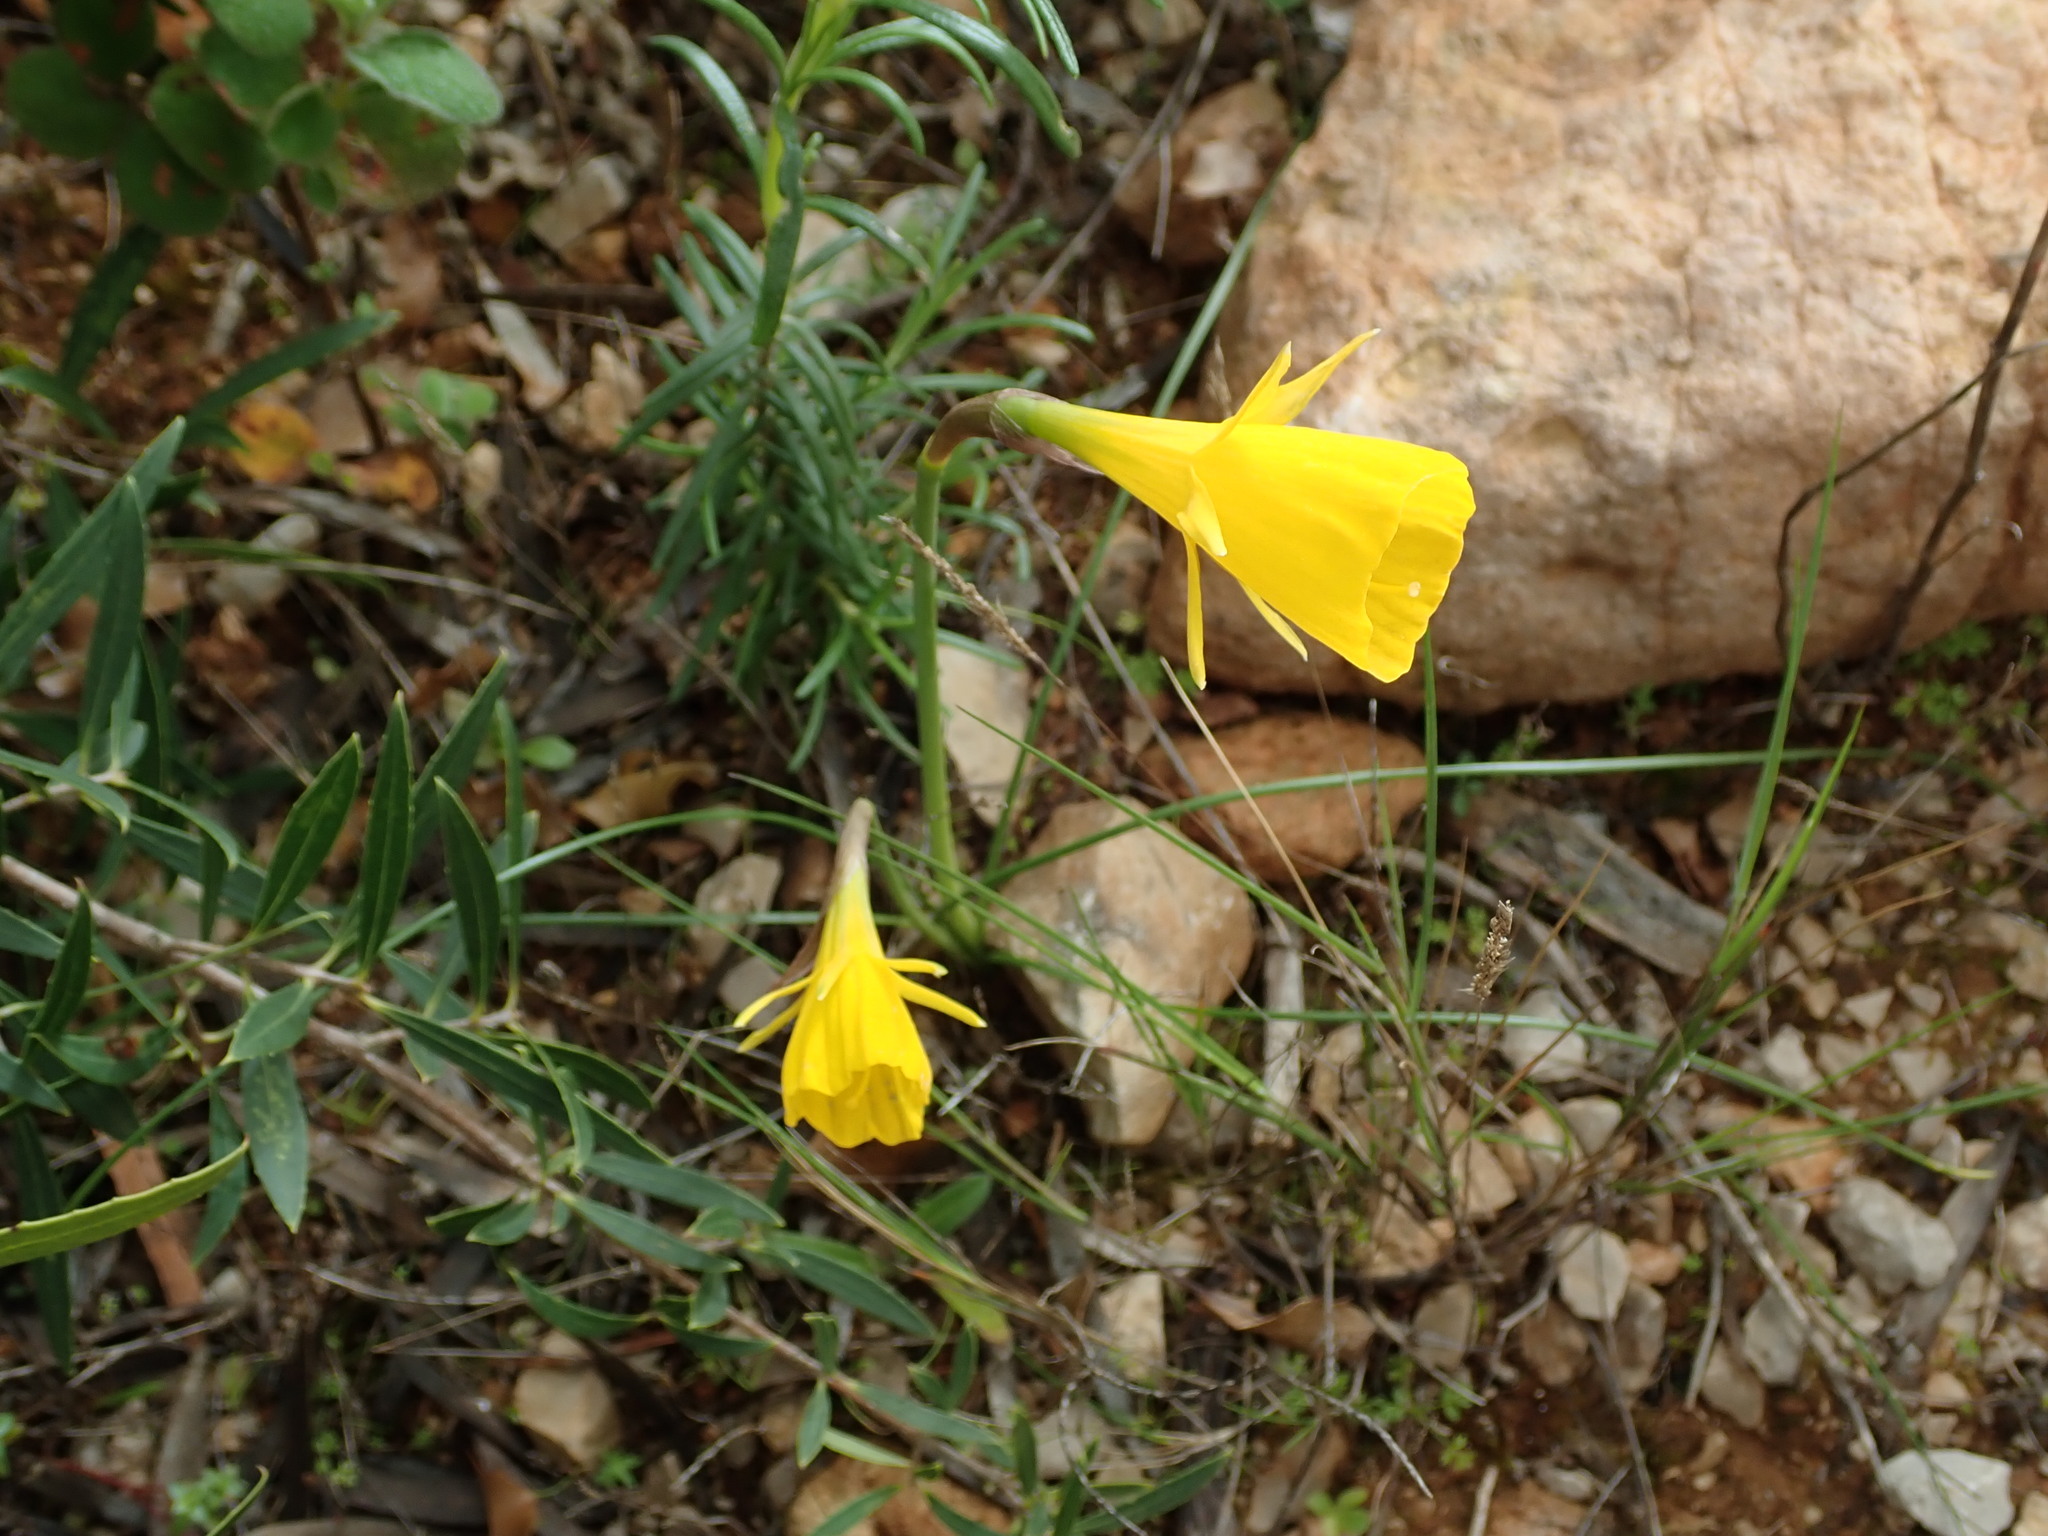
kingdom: Plantae
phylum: Tracheophyta
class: Liliopsida
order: Asparagales
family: Amaryllidaceae
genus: Narcissus
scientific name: Narcissus bulbocodium
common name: Hoop-petticoat daffodil
